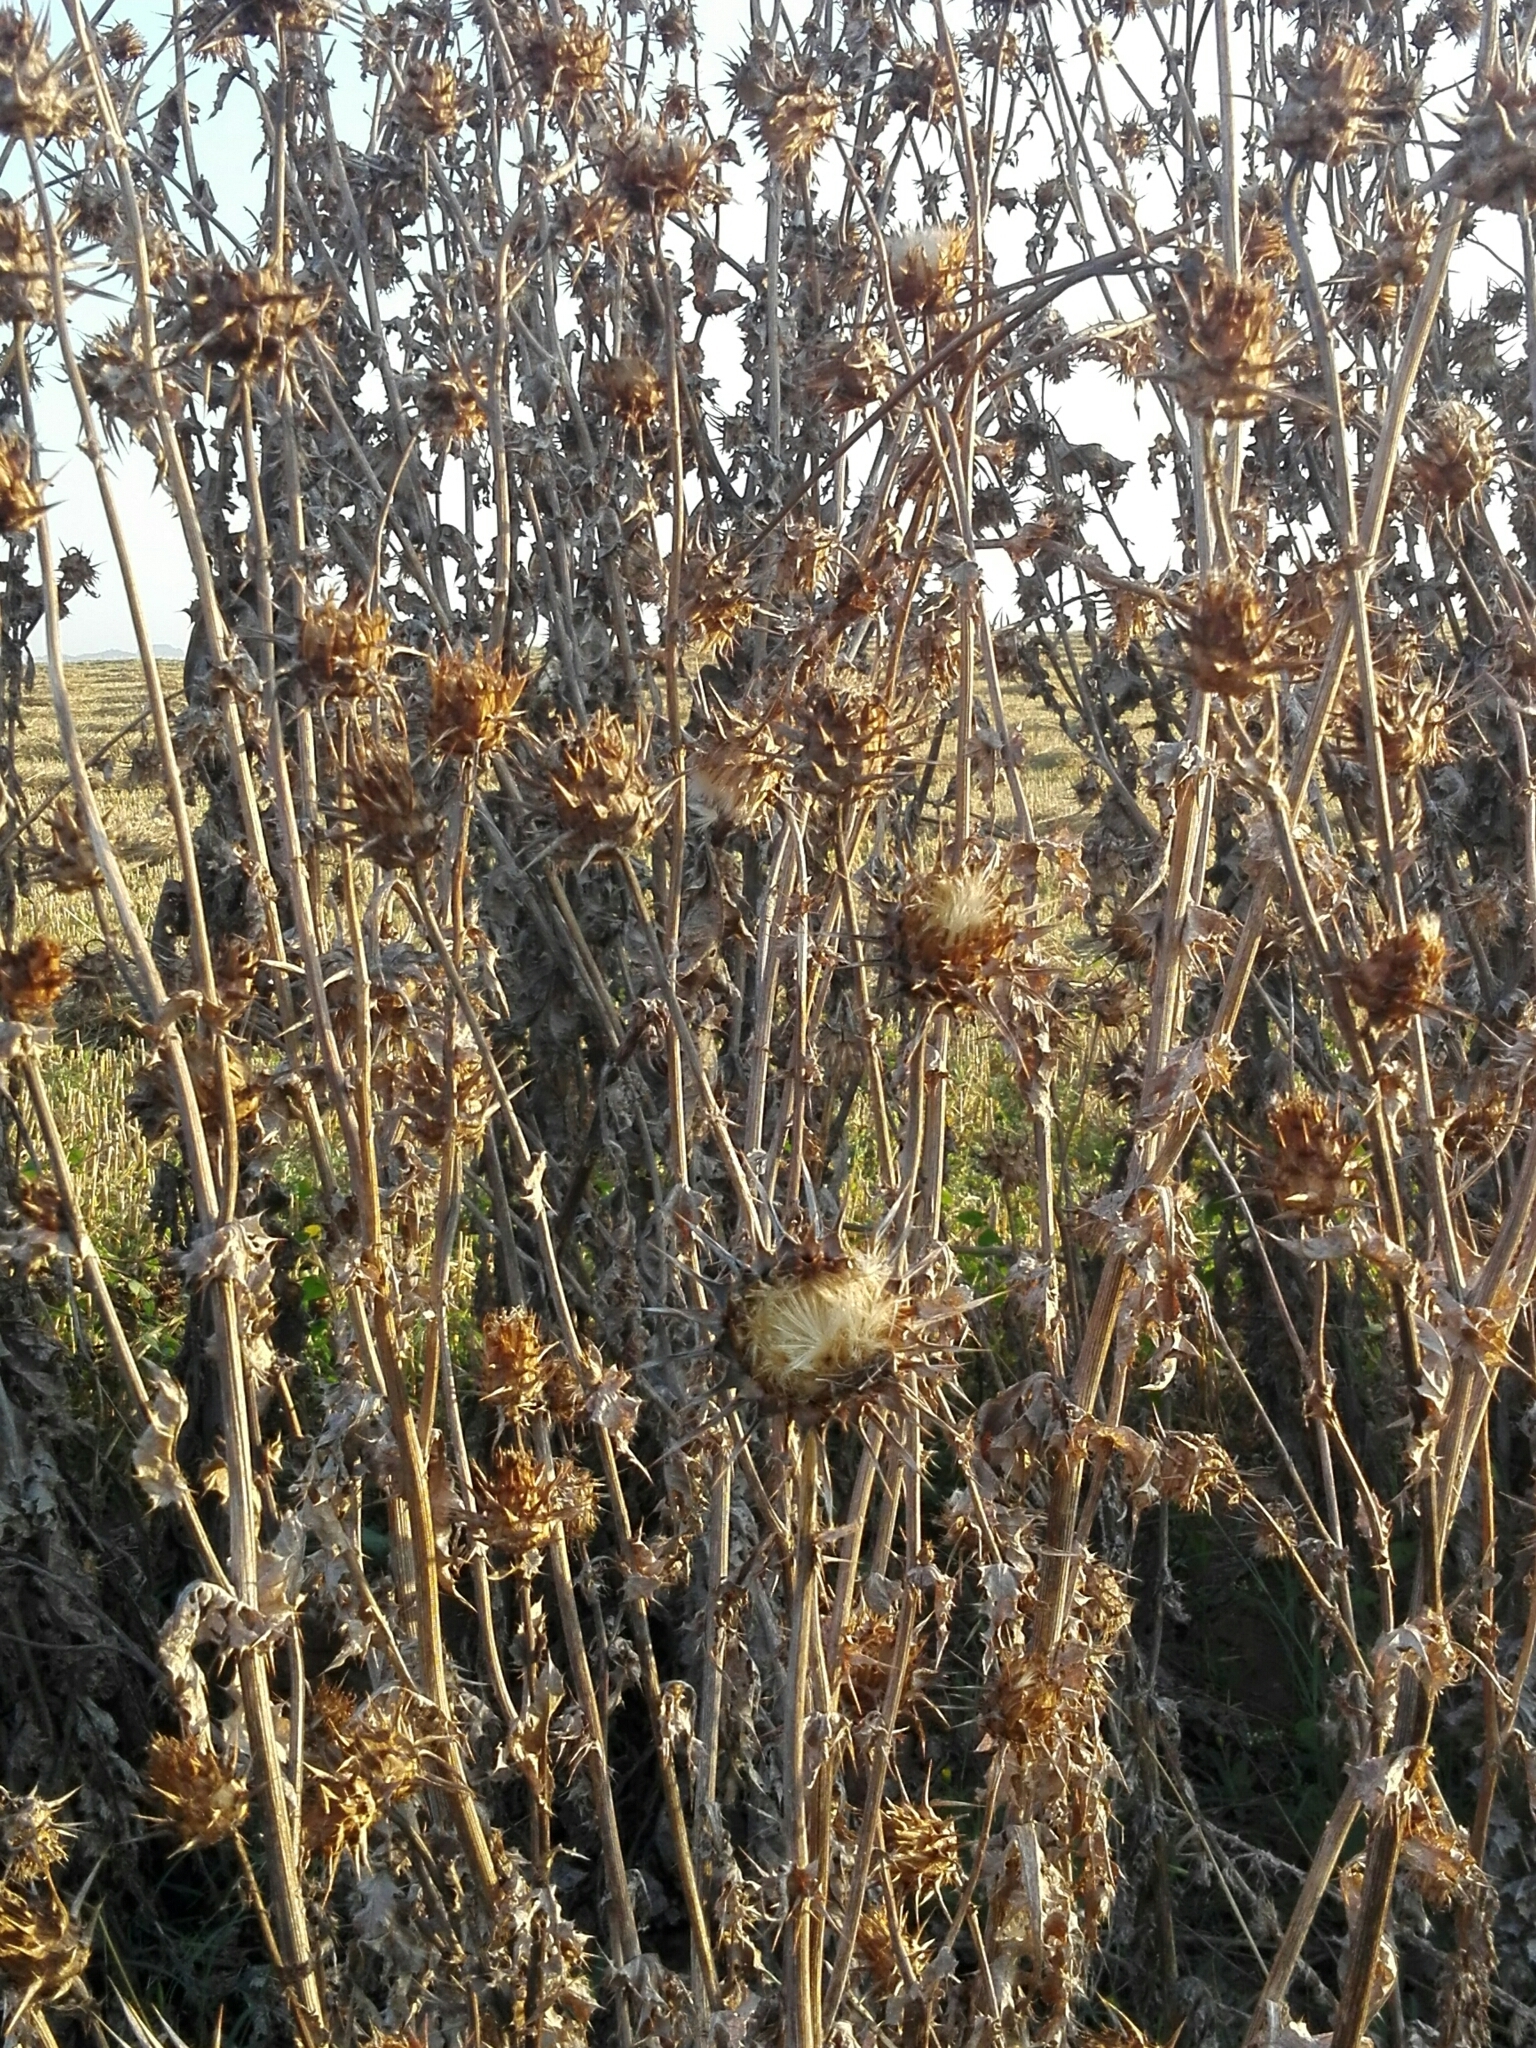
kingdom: Plantae
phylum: Tracheophyta
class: Magnoliopsida
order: Asterales
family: Asteraceae
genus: Silybum
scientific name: Silybum marianum
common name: Milk thistle
